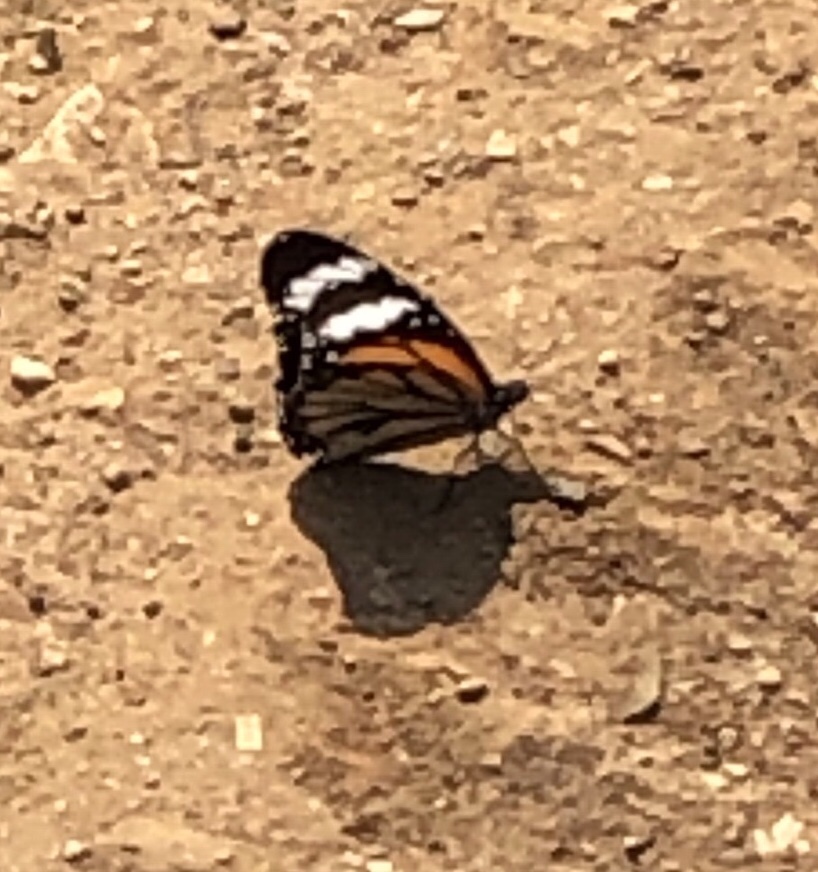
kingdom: Animalia
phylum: Arthropoda
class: Insecta
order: Lepidoptera
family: Nymphalidae
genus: Danaus
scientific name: Danaus genutia
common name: Common tiger butterfly
